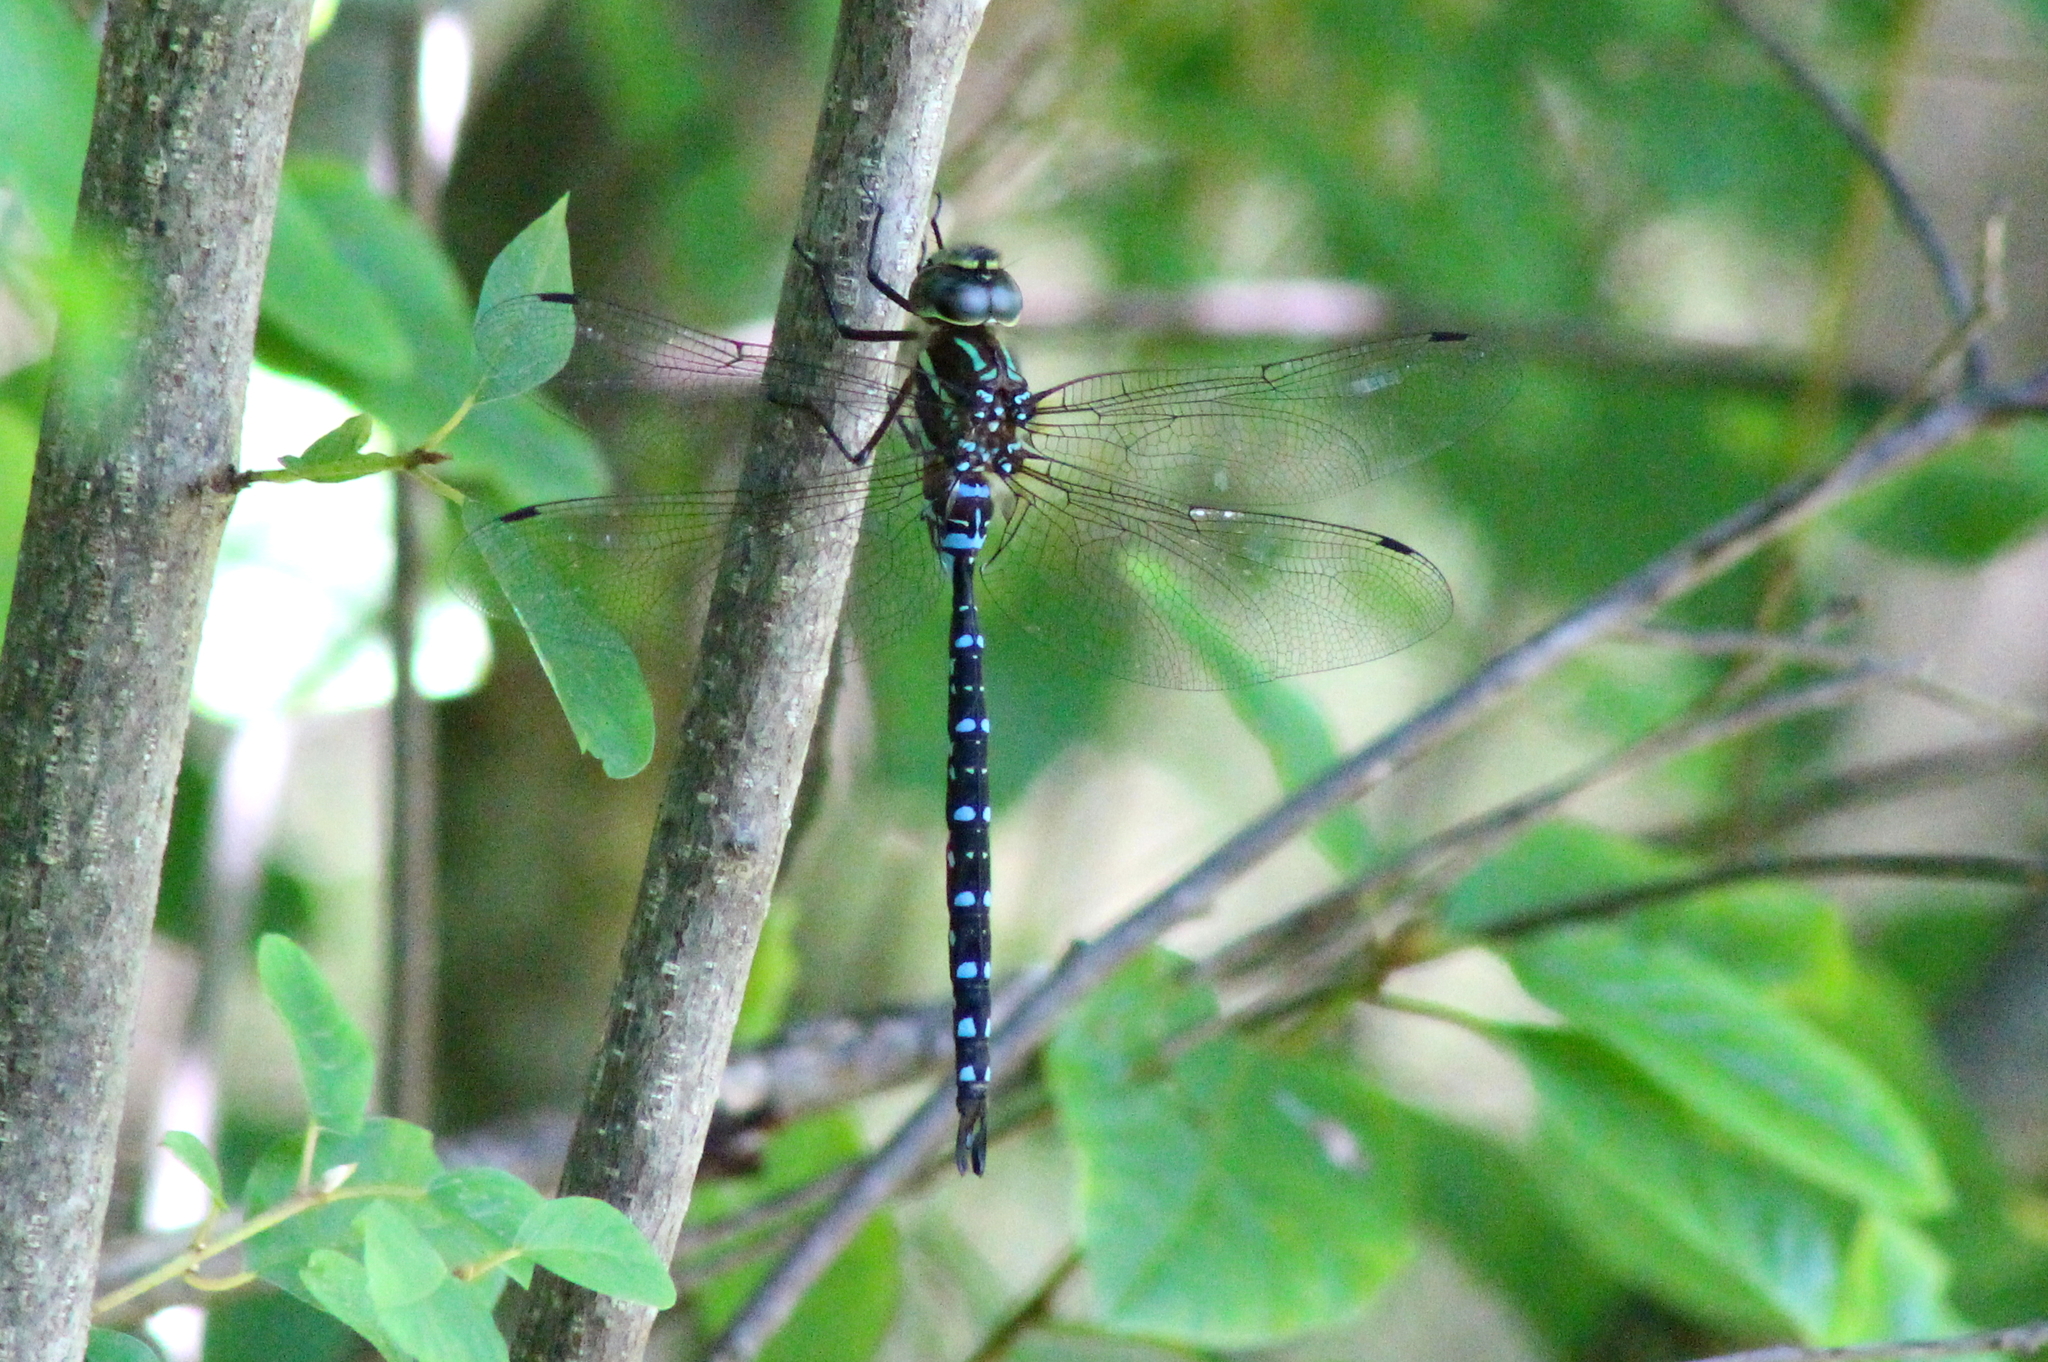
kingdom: Animalia
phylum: Arthropoda
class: Insecta
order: Odonata
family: Aeshnidae
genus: Aeshna
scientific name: Aeshna tuberculifera
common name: Aeschne à tubercules
